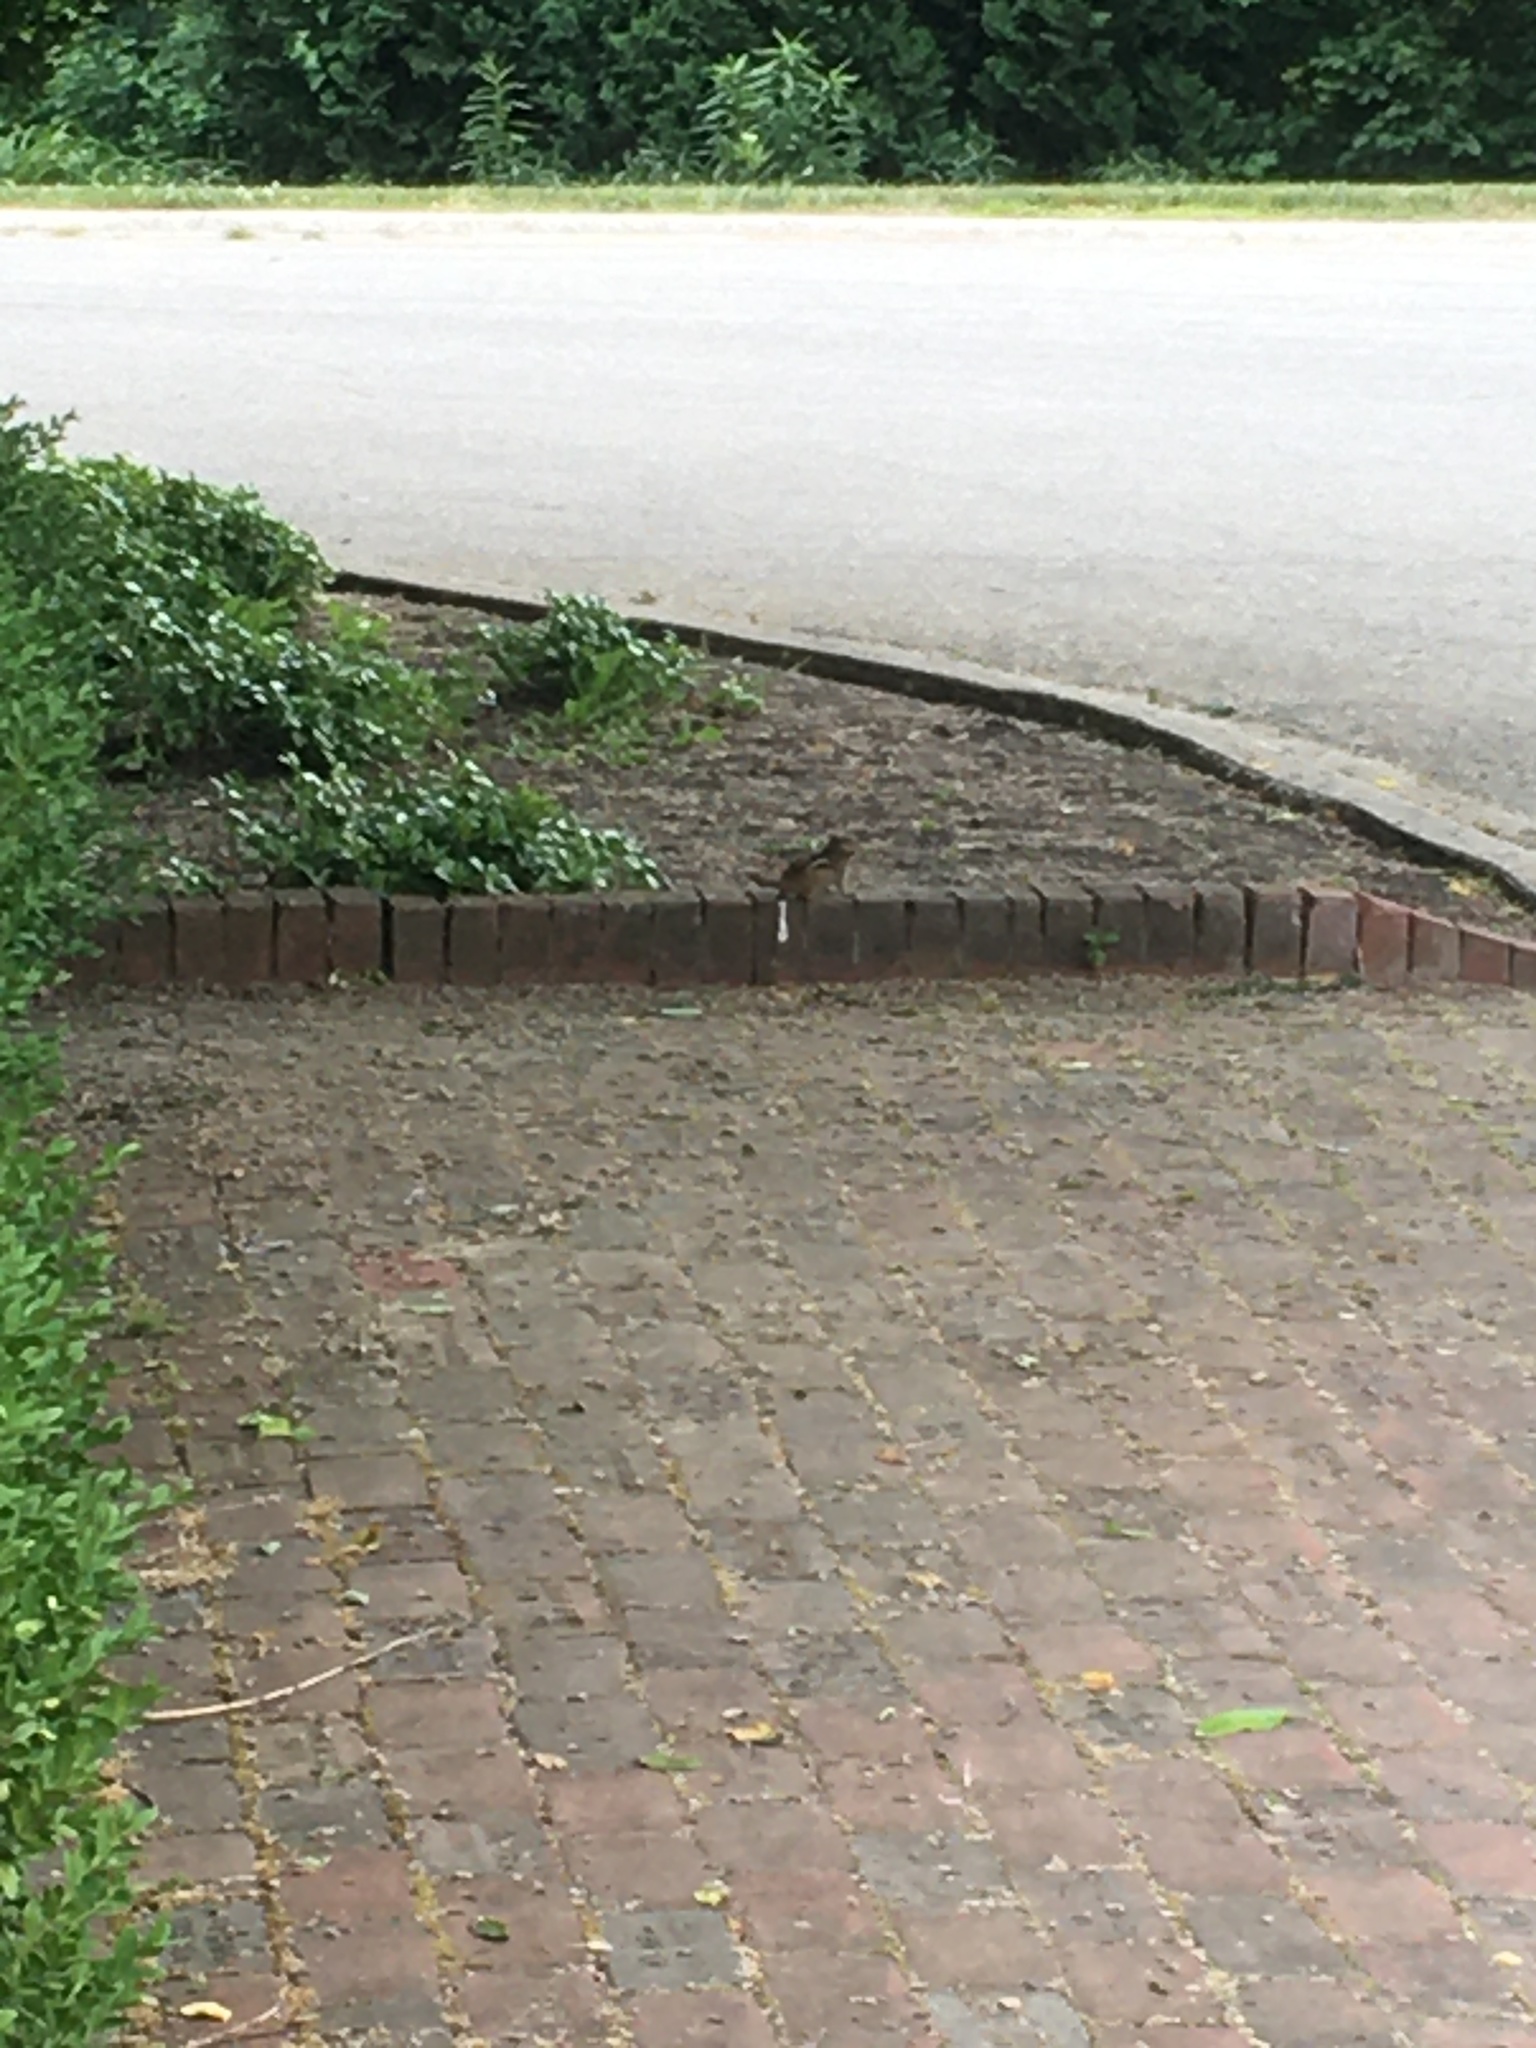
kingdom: Animalia
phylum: Chordata
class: Mammalia
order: Rodentia
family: Sciuridae
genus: Tamias
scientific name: Tamias striatus
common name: Eastern chipmunk
